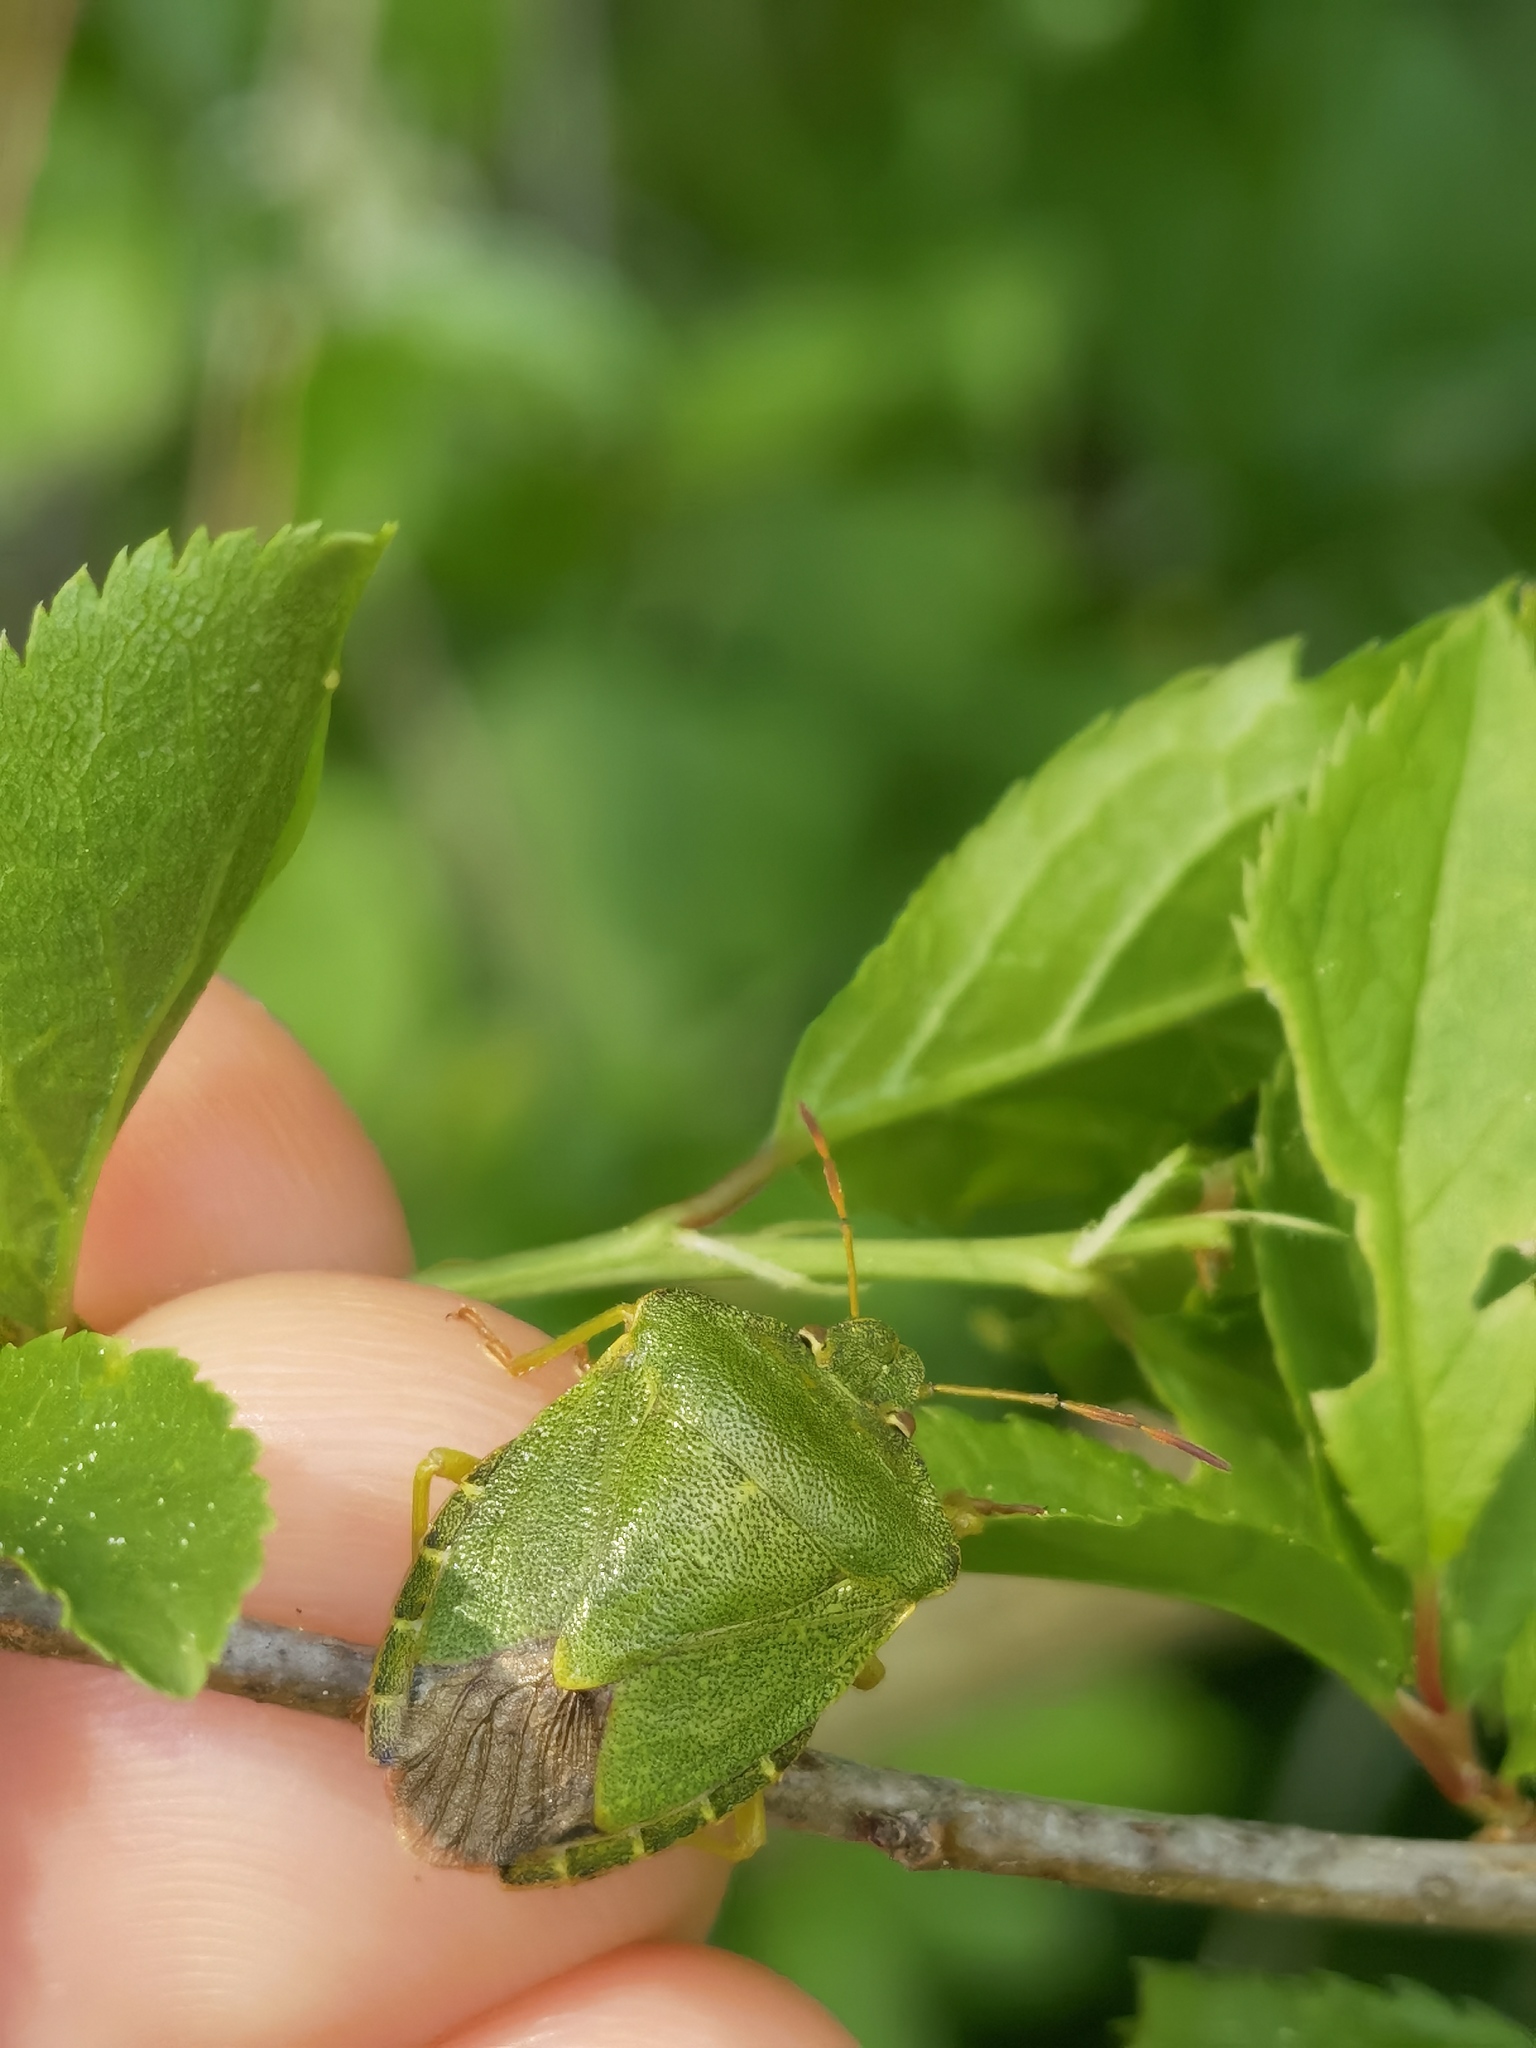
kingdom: Animalia
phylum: Arthropoda
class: Insecta
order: Hemiptera
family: Pentatomidae
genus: Palomena
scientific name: Palomena prasina
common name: Green shieldbug
